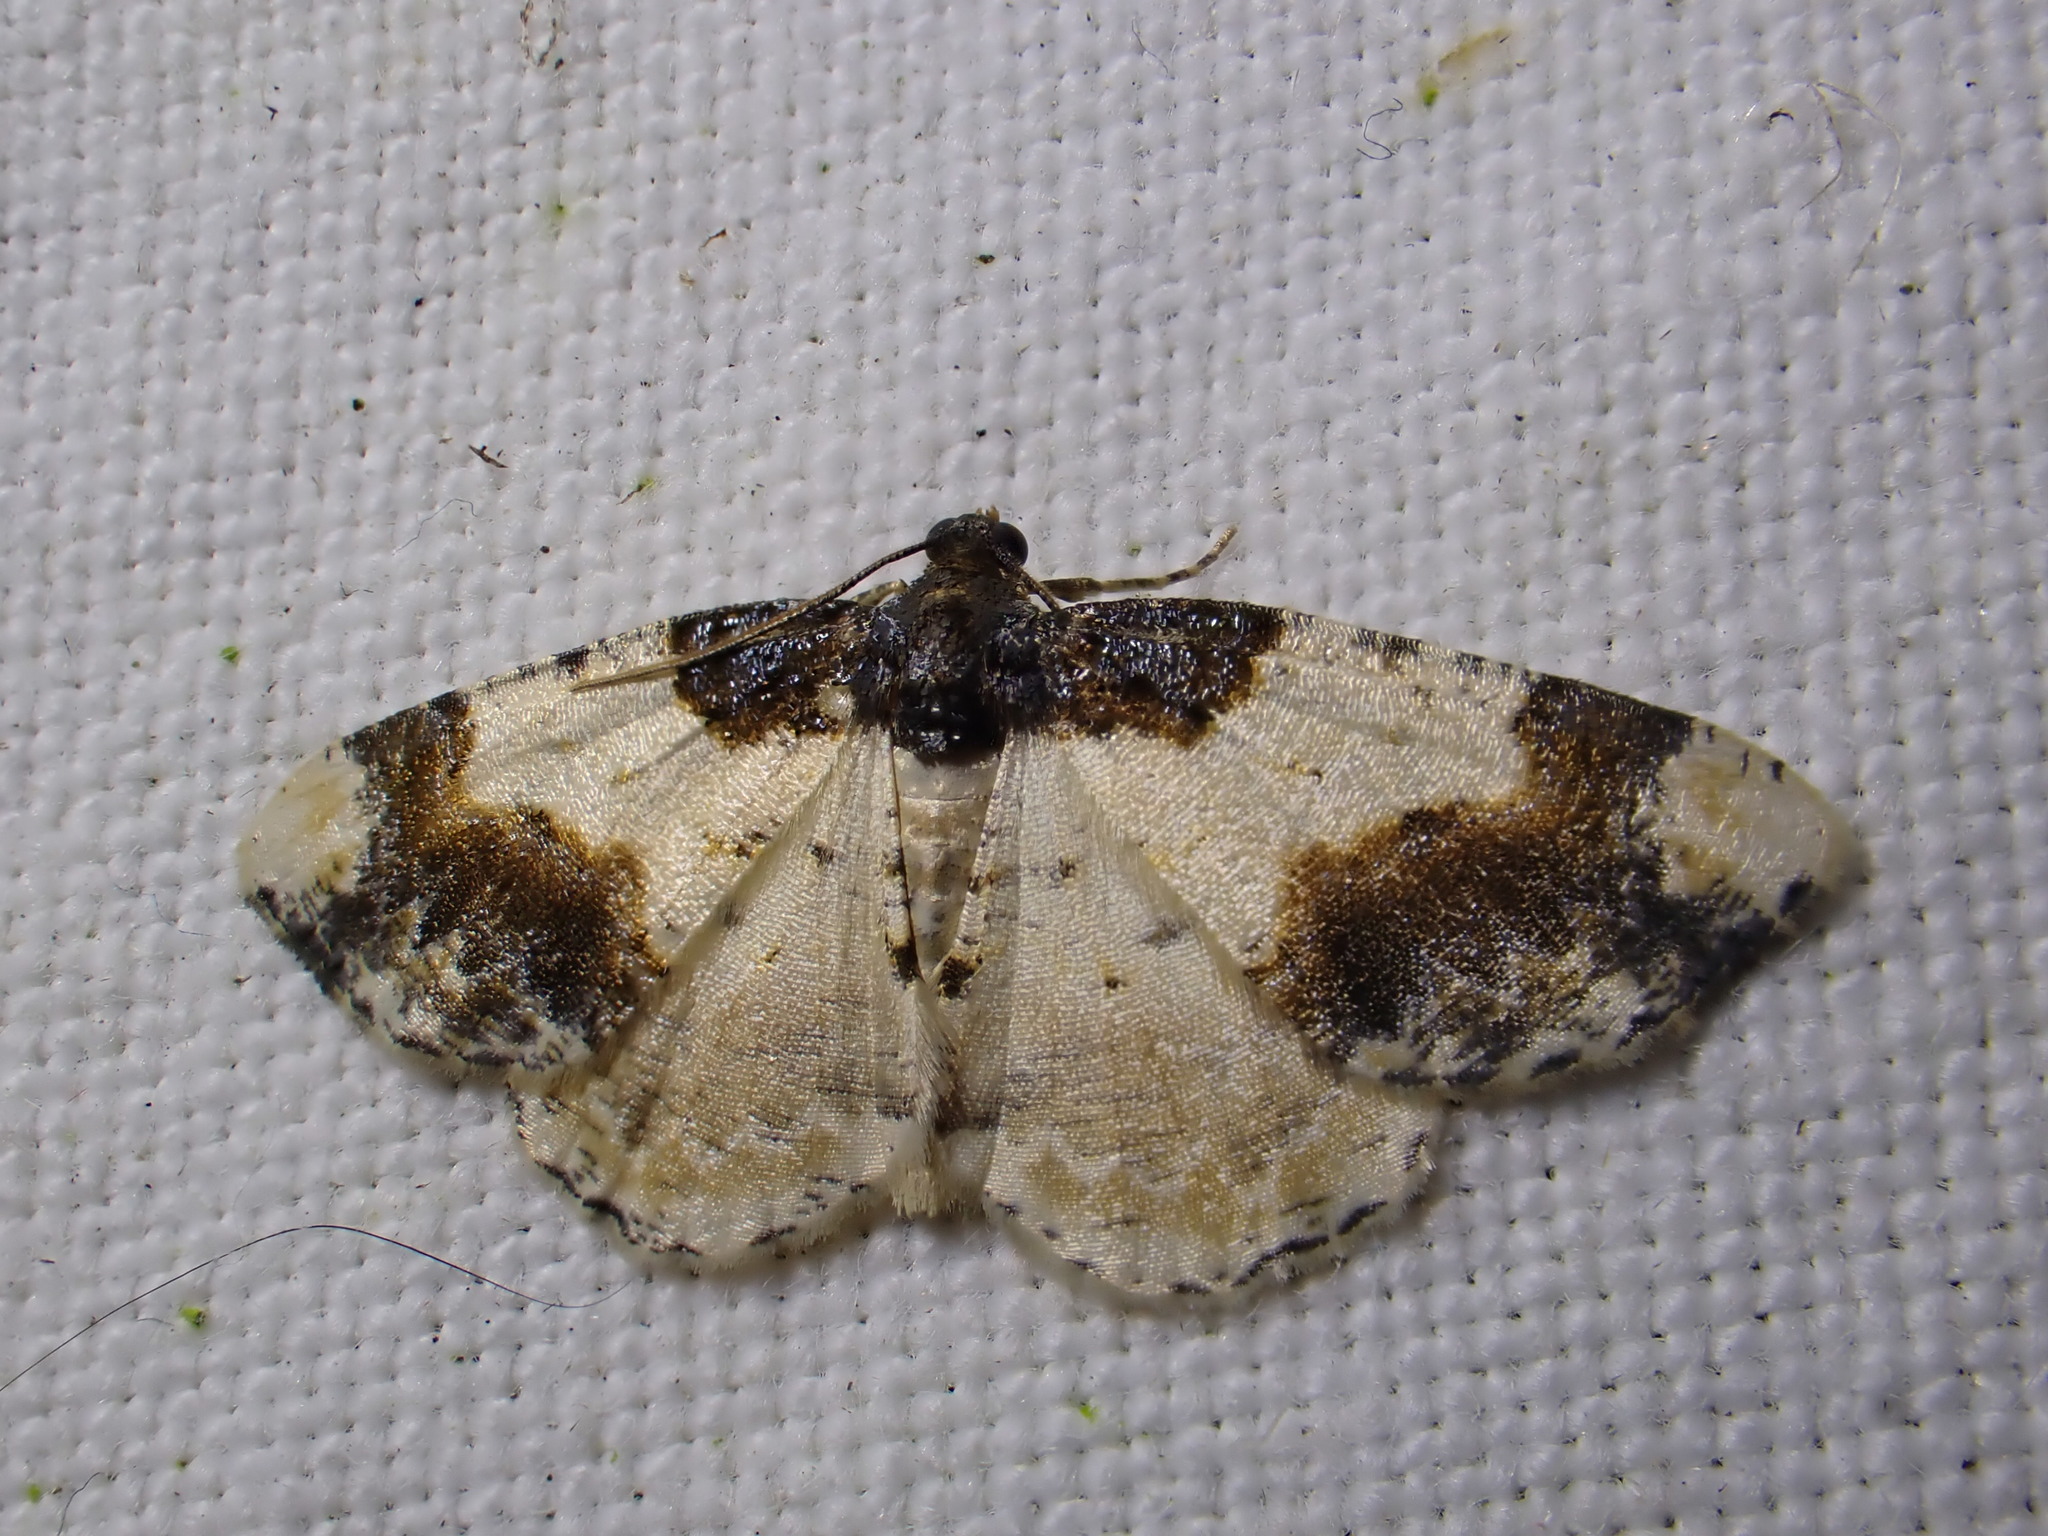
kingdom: Animalia
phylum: Arthropoda
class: Insecta
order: Lepidoptera
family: Geometridae
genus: Ligdia
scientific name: Ligdia adustata
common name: Scorched carpet
